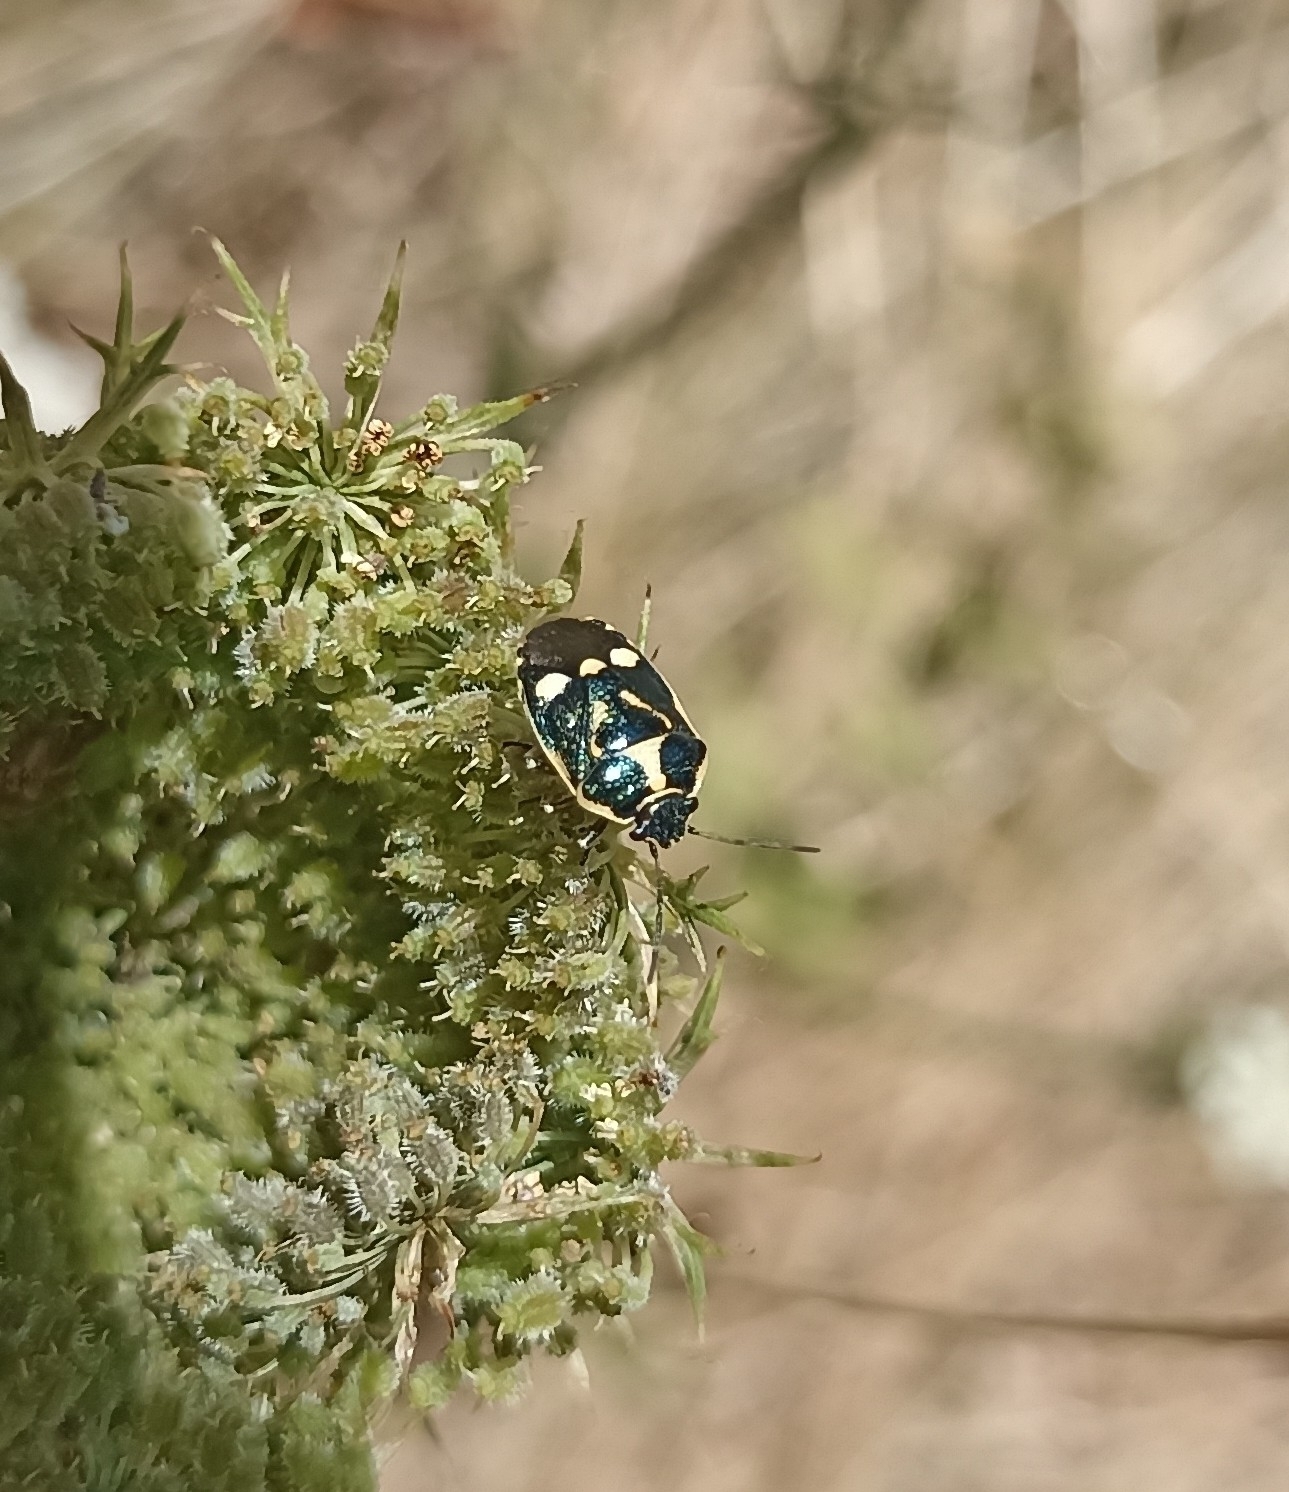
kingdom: Animalia
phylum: Arthropoda
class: Insecta
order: Hemiptera
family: Pentatomidae
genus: Eurydema
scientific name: Eurydema oleracea
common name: Cabbage bug
